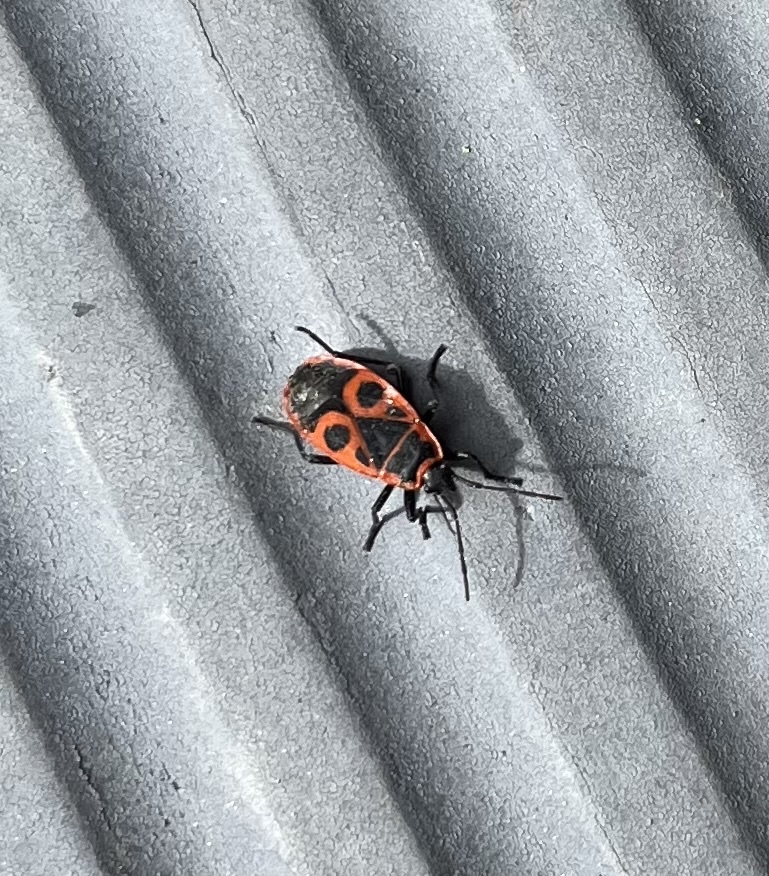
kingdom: Animalia
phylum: Arthropoda
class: Insecta
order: Hemiptera
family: Pyrrhocoridae
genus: Pyrrhocoris
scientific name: Pyrrhocoris apterus
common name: Firebug
